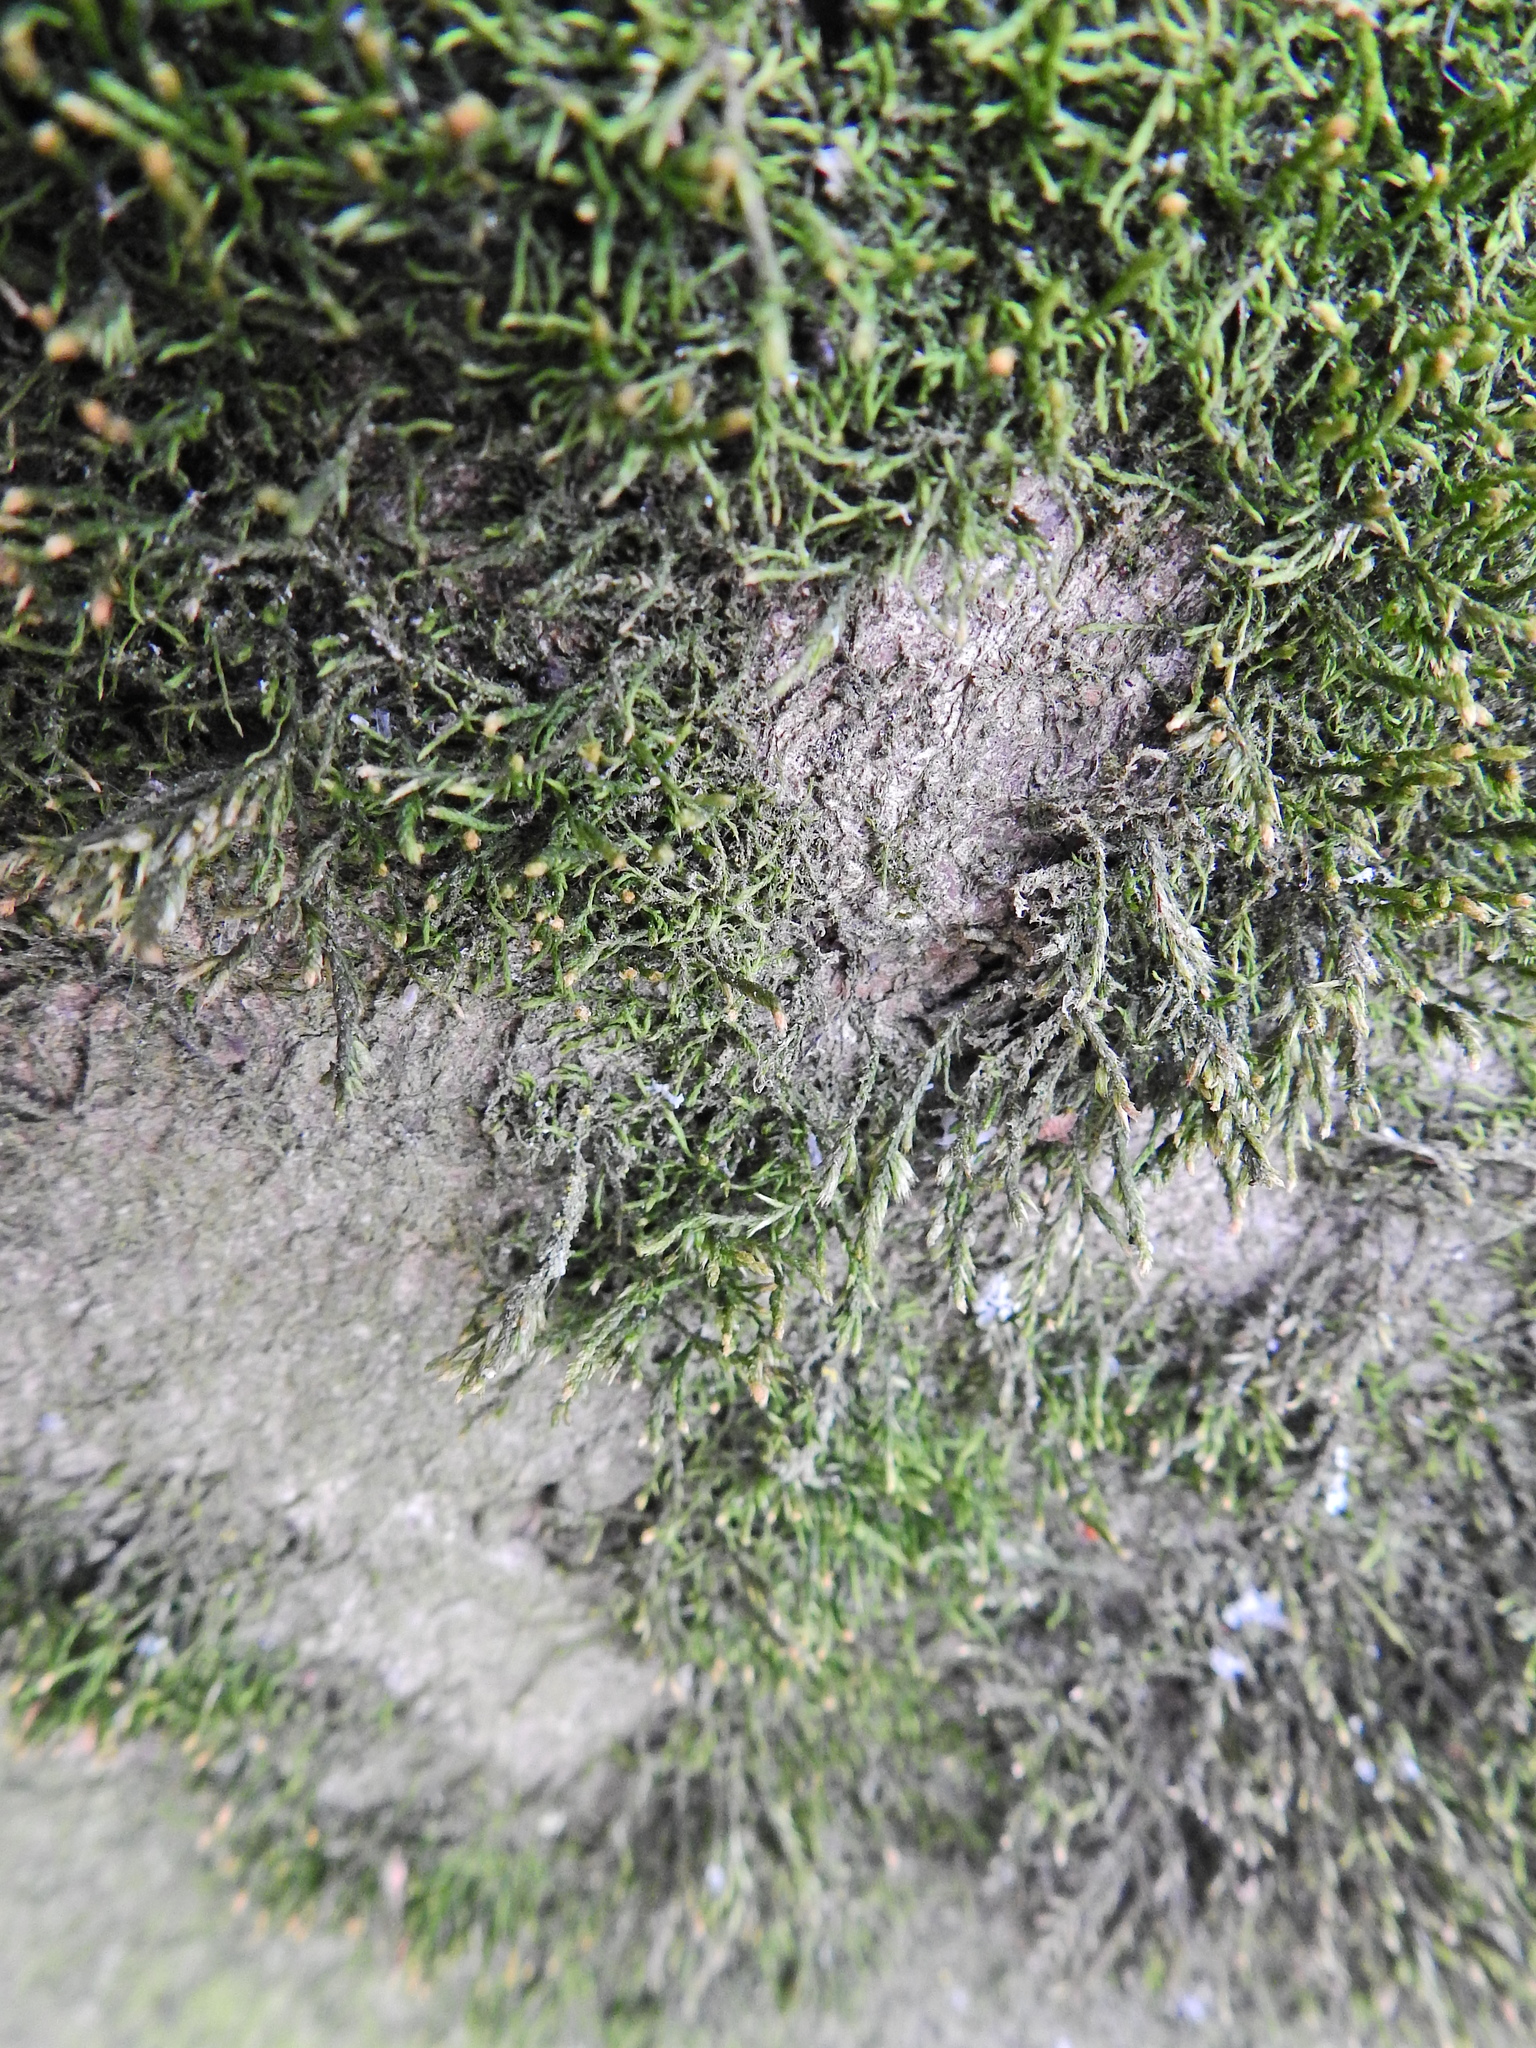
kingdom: Plantae
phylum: Bryophyta
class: Bryopsida
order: Hypnales
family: Cryphaeaceae
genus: Cryphaea
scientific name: Cryphaea heteromalla
